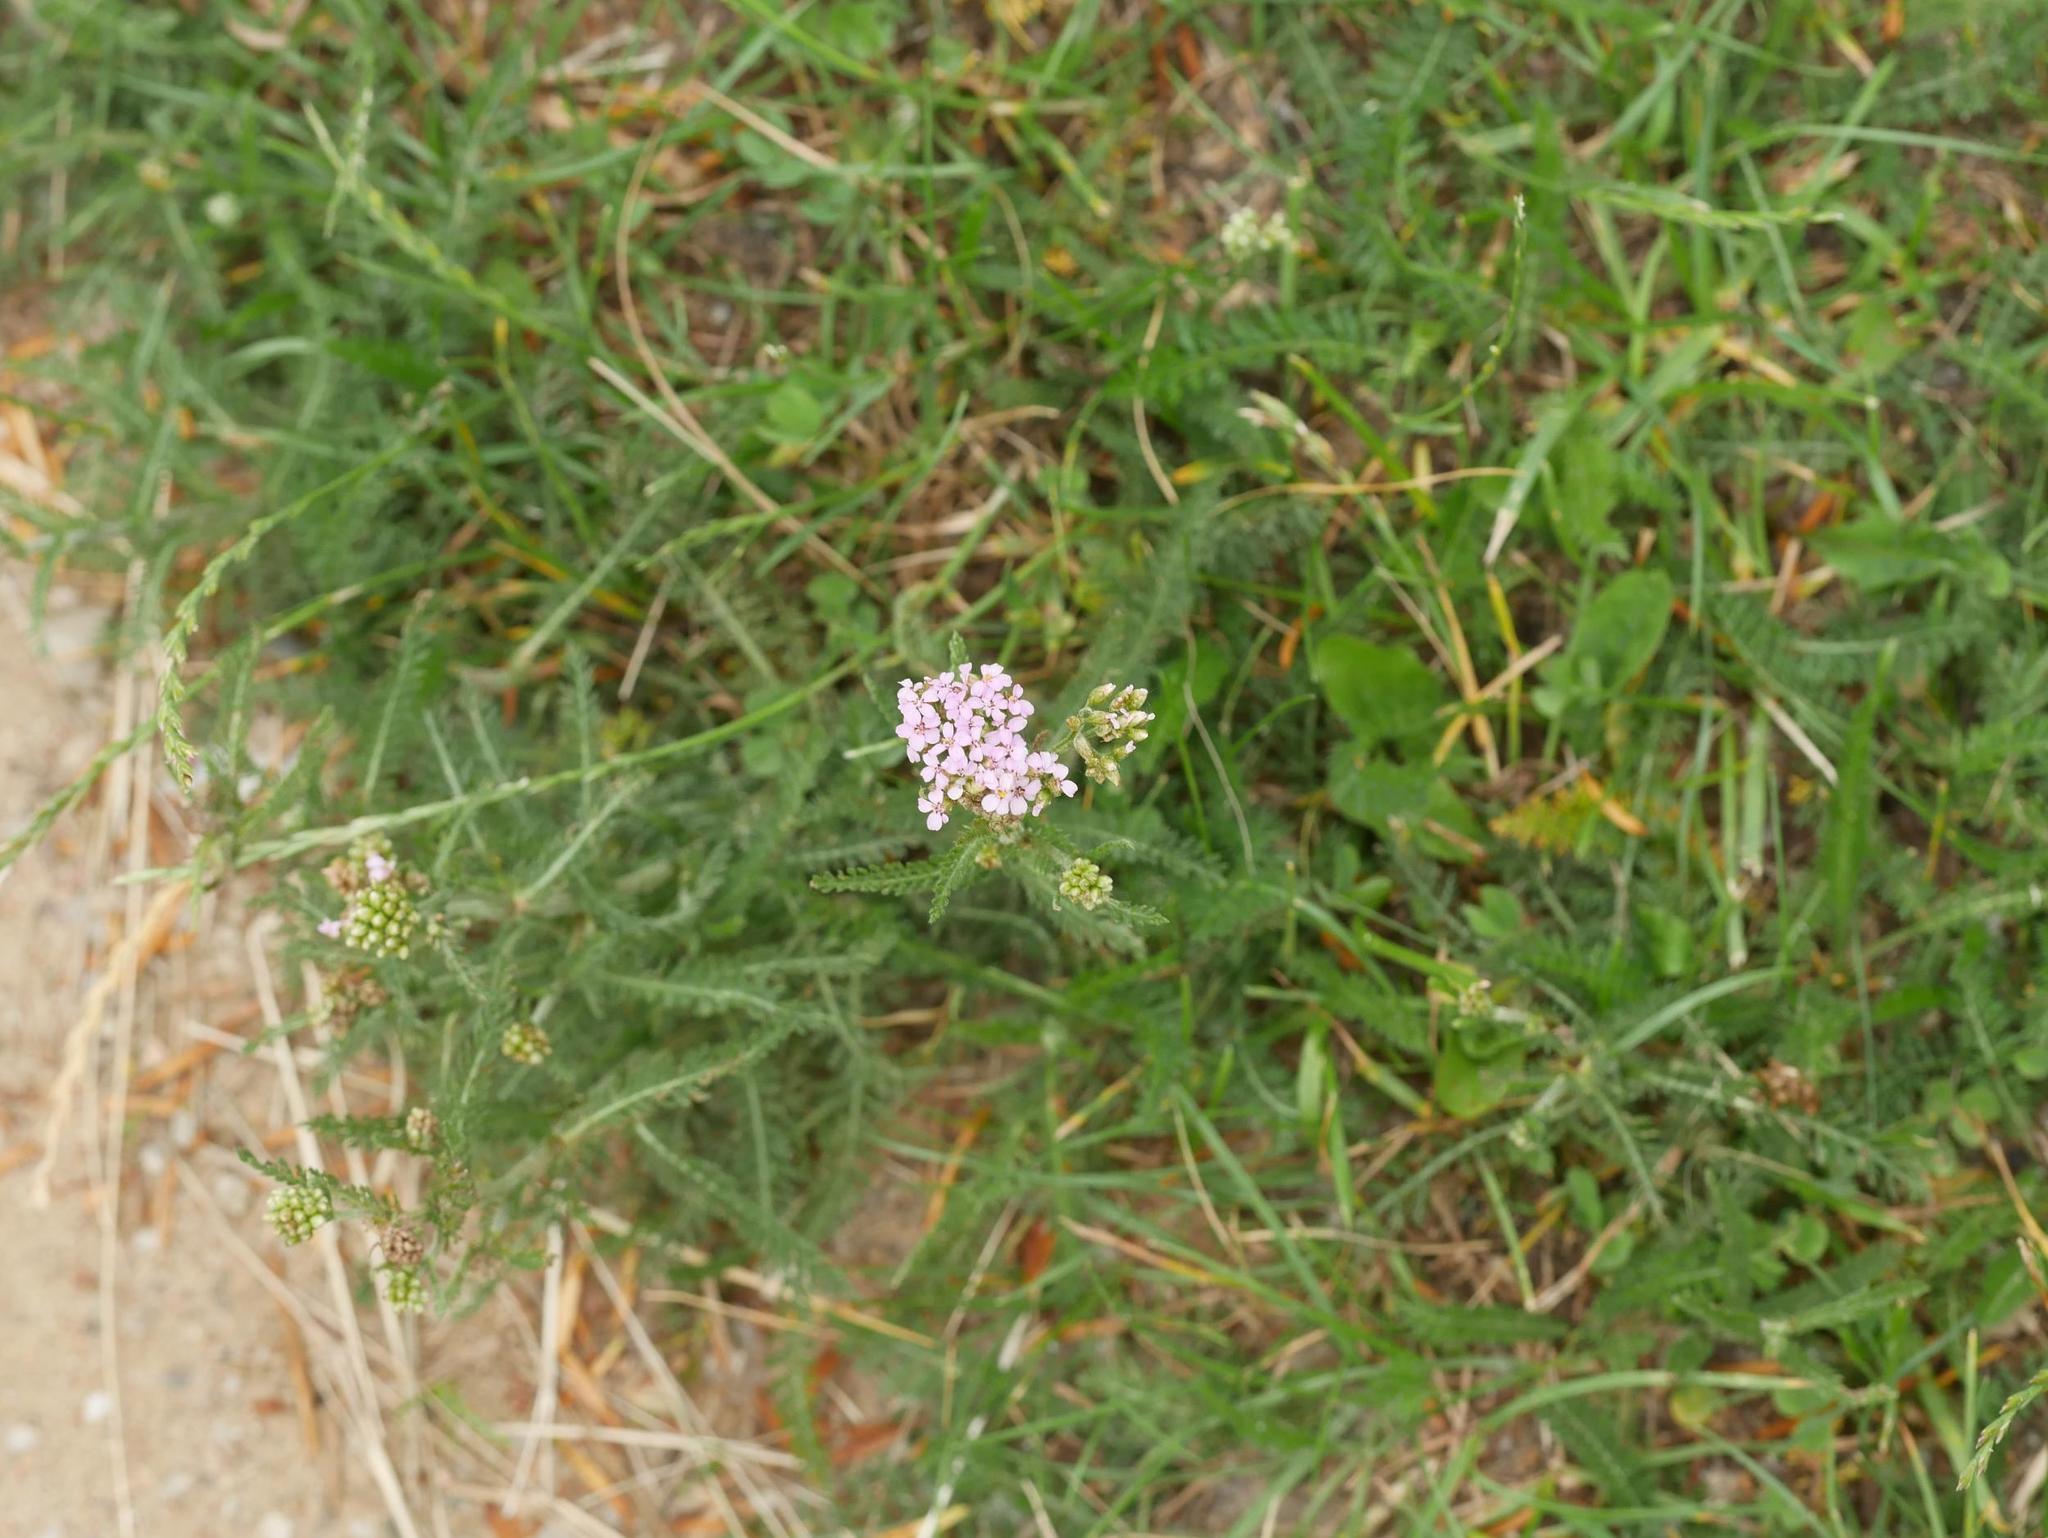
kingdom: Plantae
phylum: Tracheophyta
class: Magnoliopsida
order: Asterales
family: Asteraceae
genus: Achillea
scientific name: Achillea millefolium
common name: Yarrow
